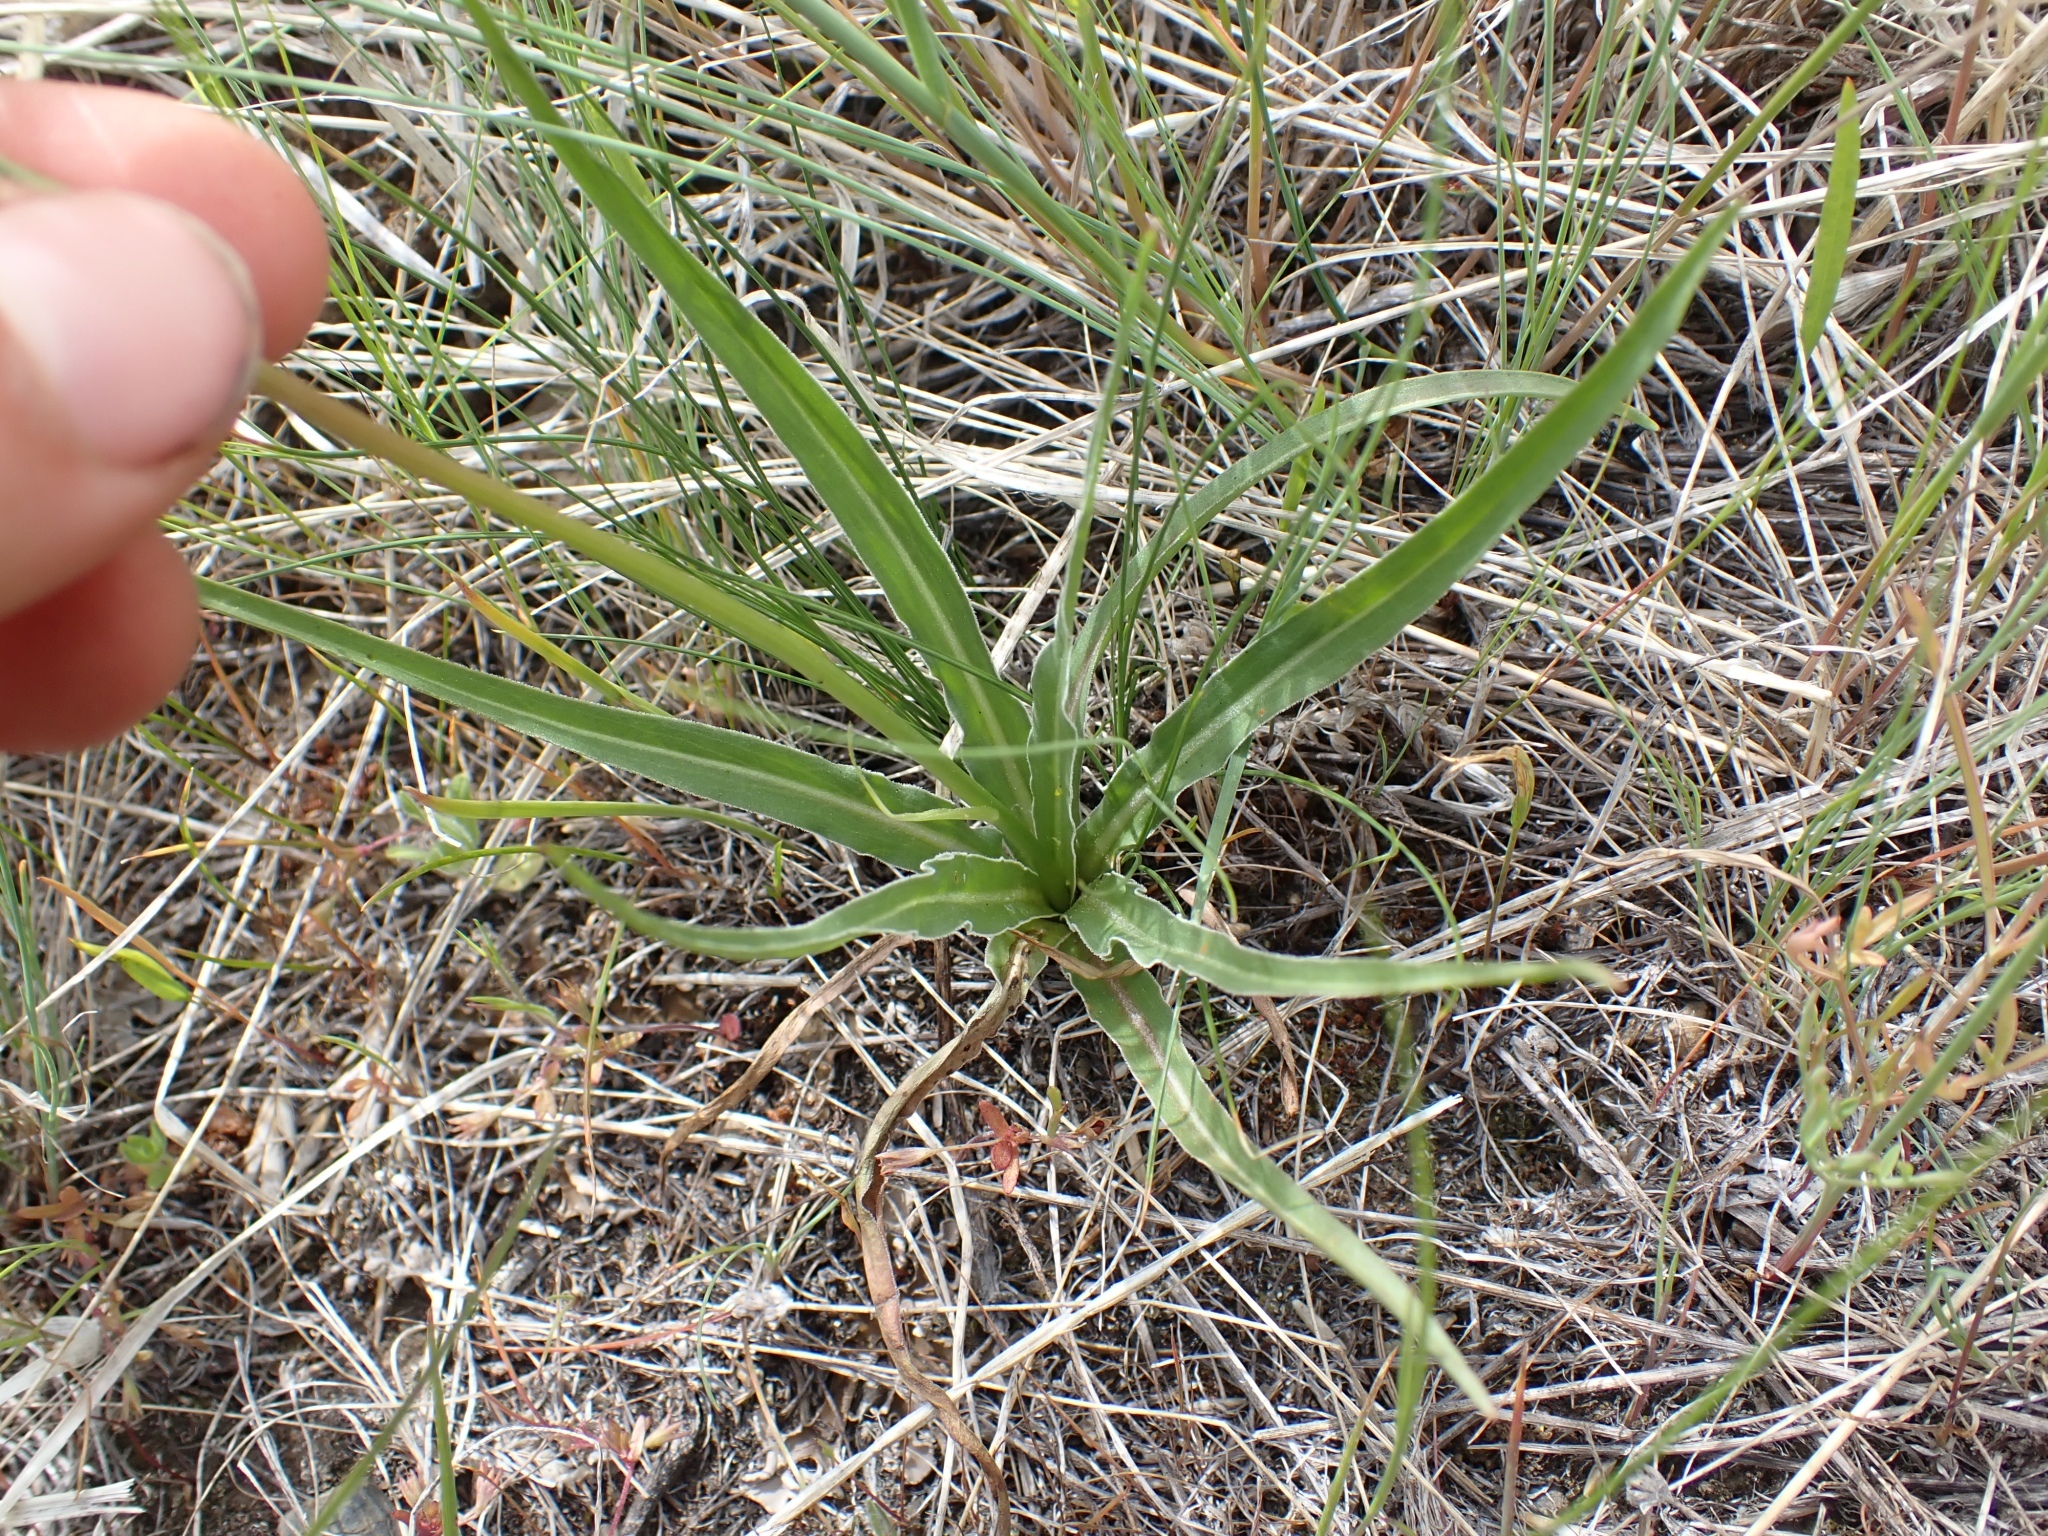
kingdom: Plantae
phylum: Tracheophyta
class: Magnoliopsida
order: Asterales
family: Asteraceae
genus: Microseris
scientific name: Microseris troximoides
